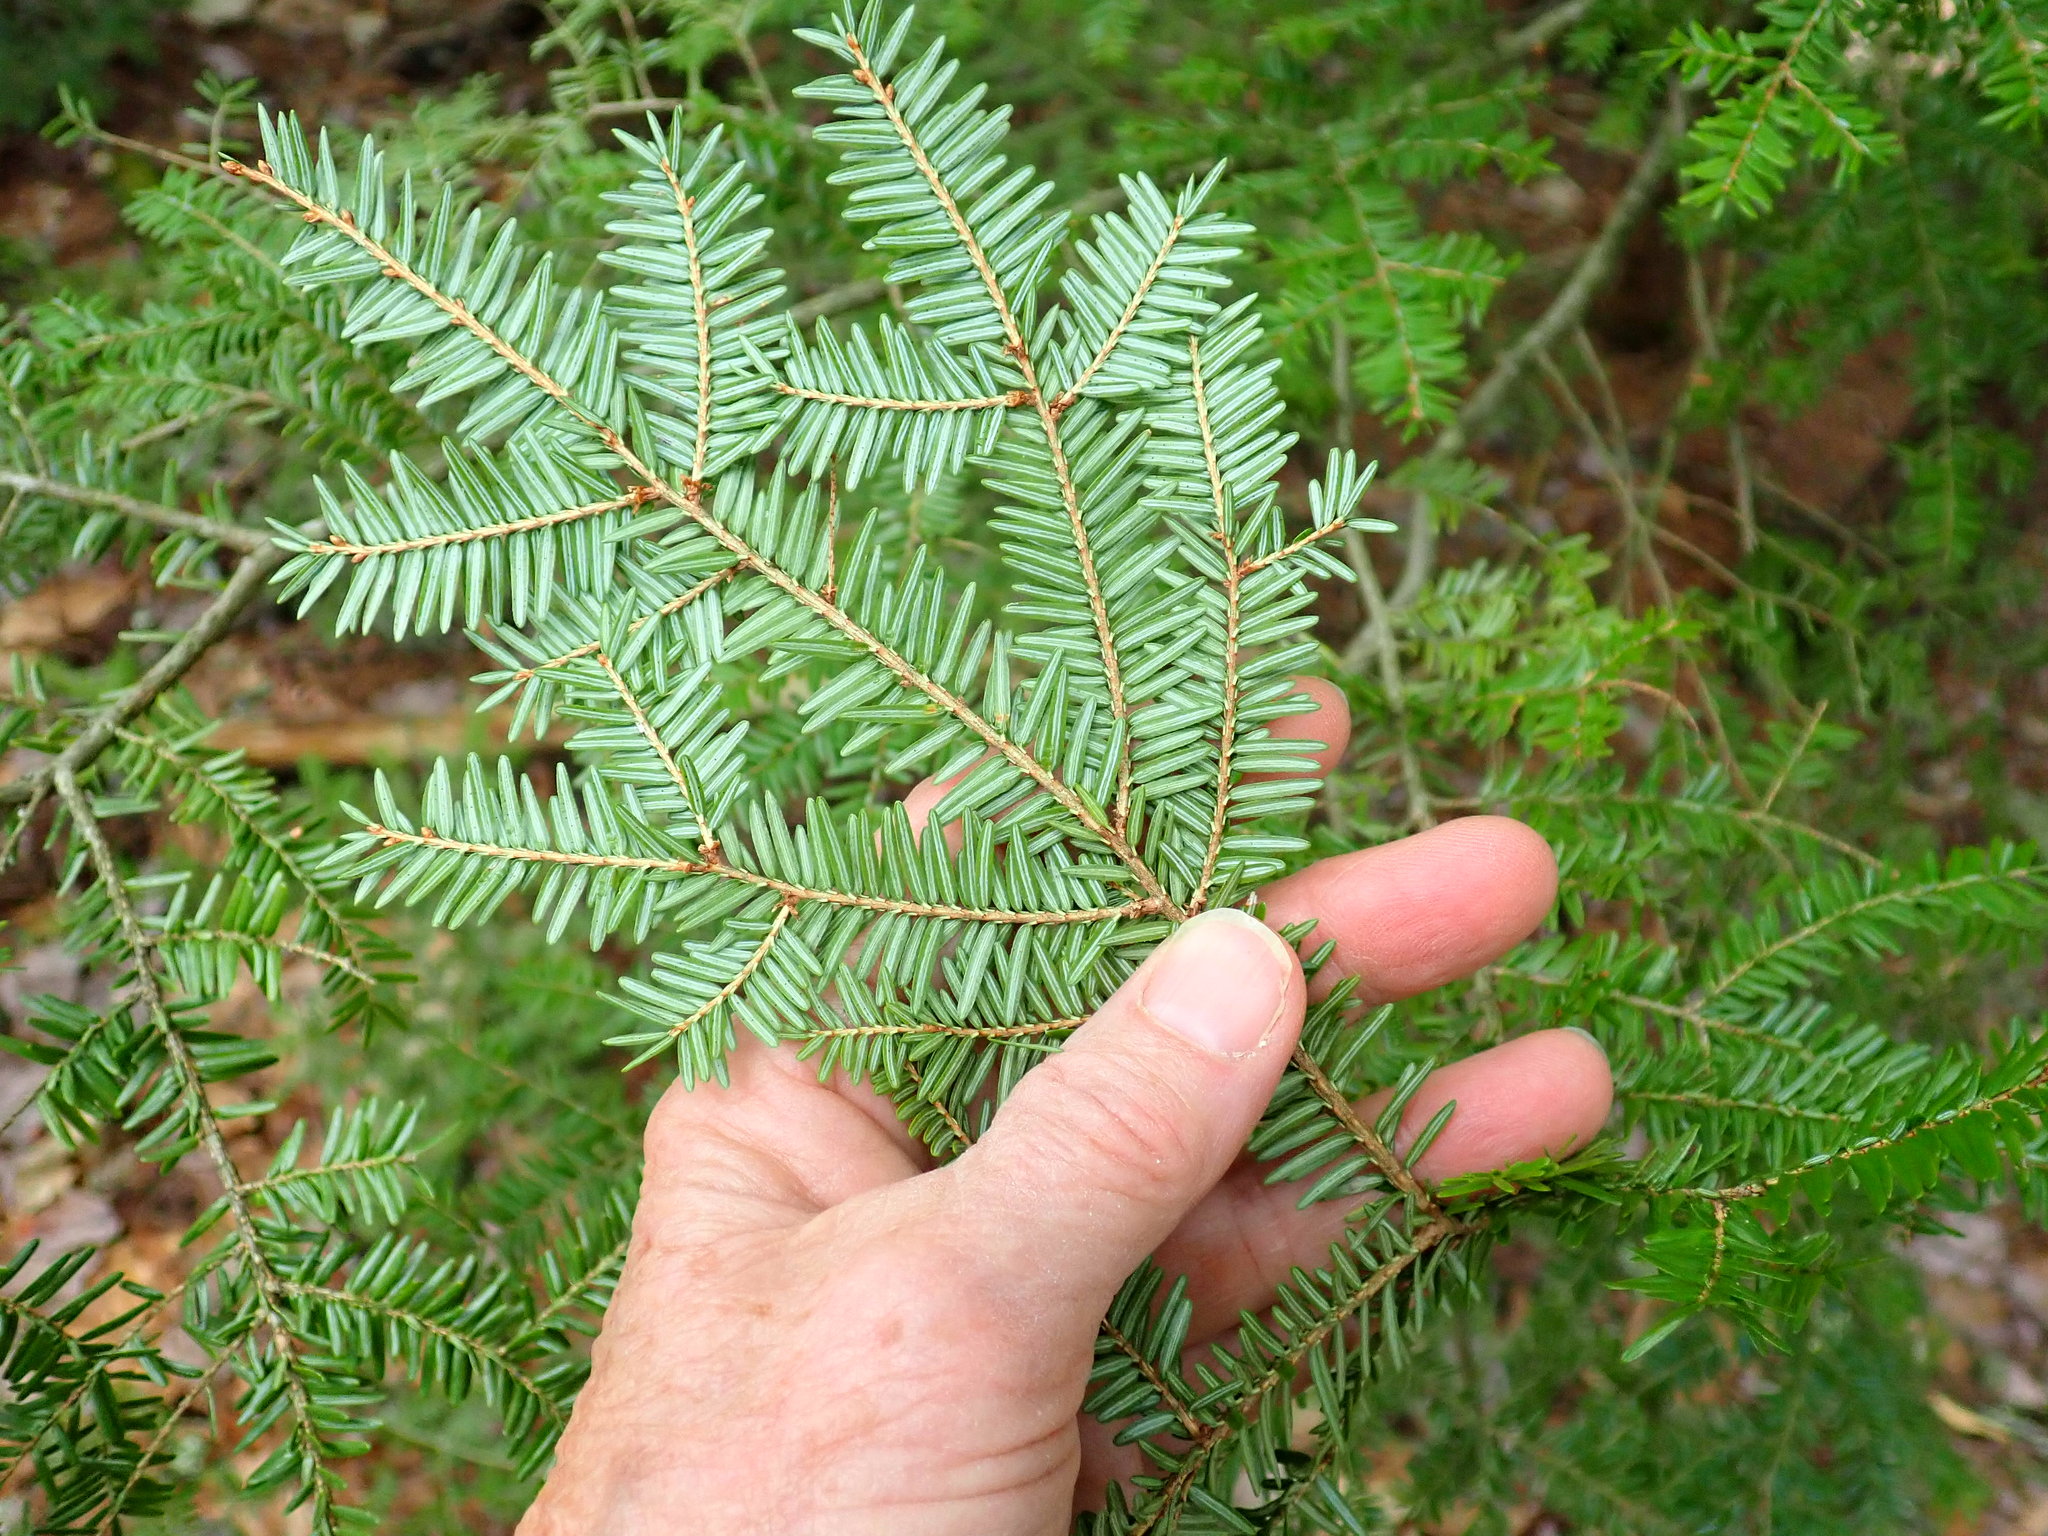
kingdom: Plantae
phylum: Tracheophyta
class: Pinopsida
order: Pinales
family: Pinaceae
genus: Tsuga
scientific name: Tsuga canadensis
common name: Eastern hemlock
